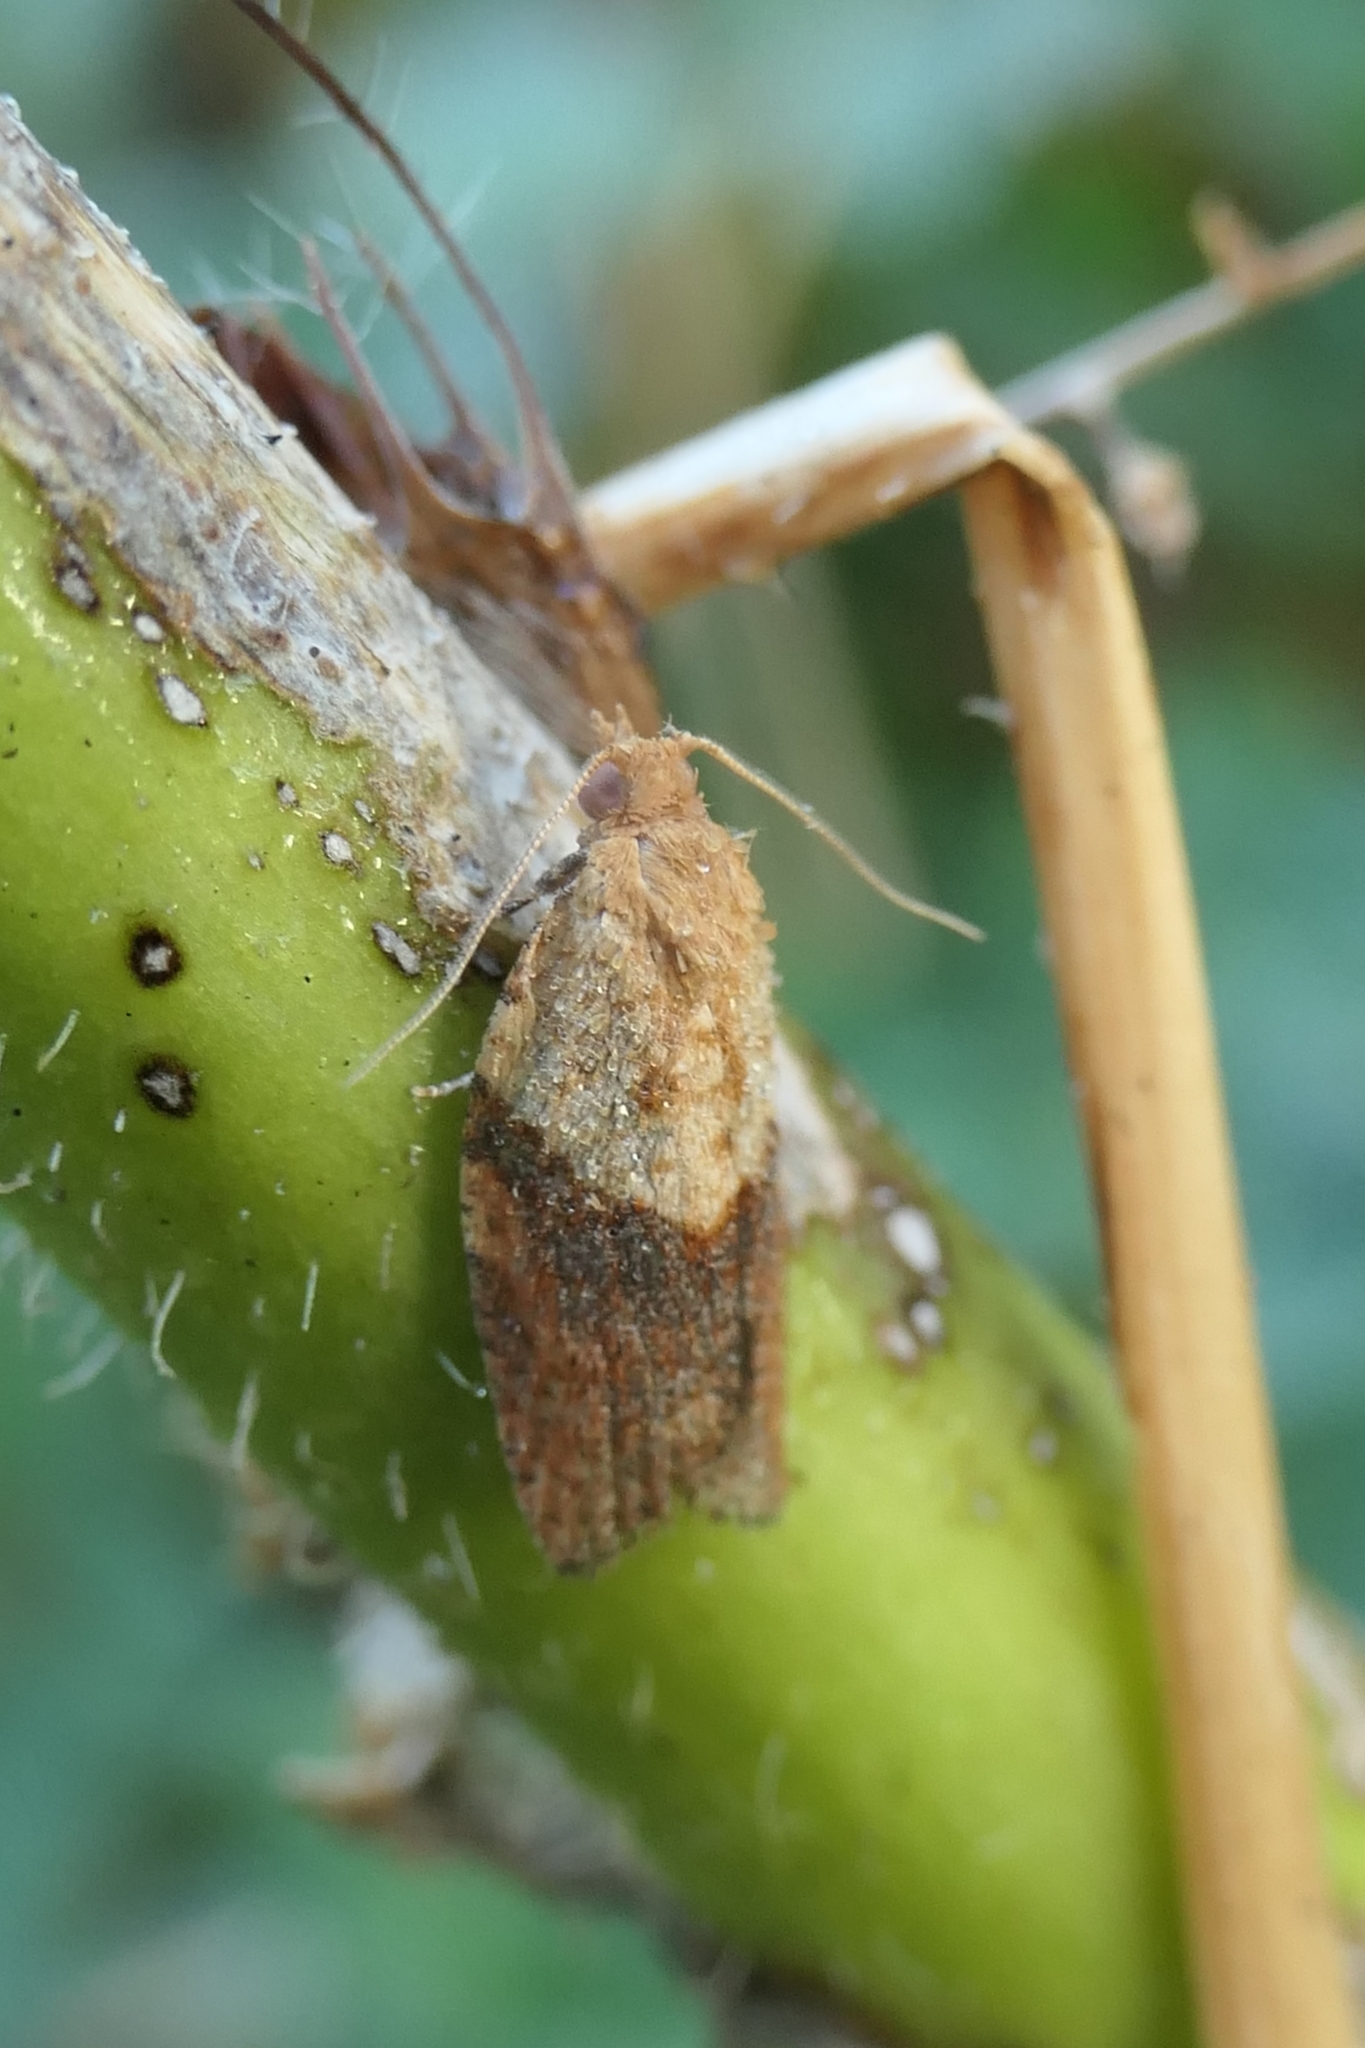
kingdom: Animalia
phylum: Arthropoda
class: Insecta
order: Lepidoptera
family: Tortricidae
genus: Epiphyas
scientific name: Epiphyas postvittana
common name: Light brown apple moth
